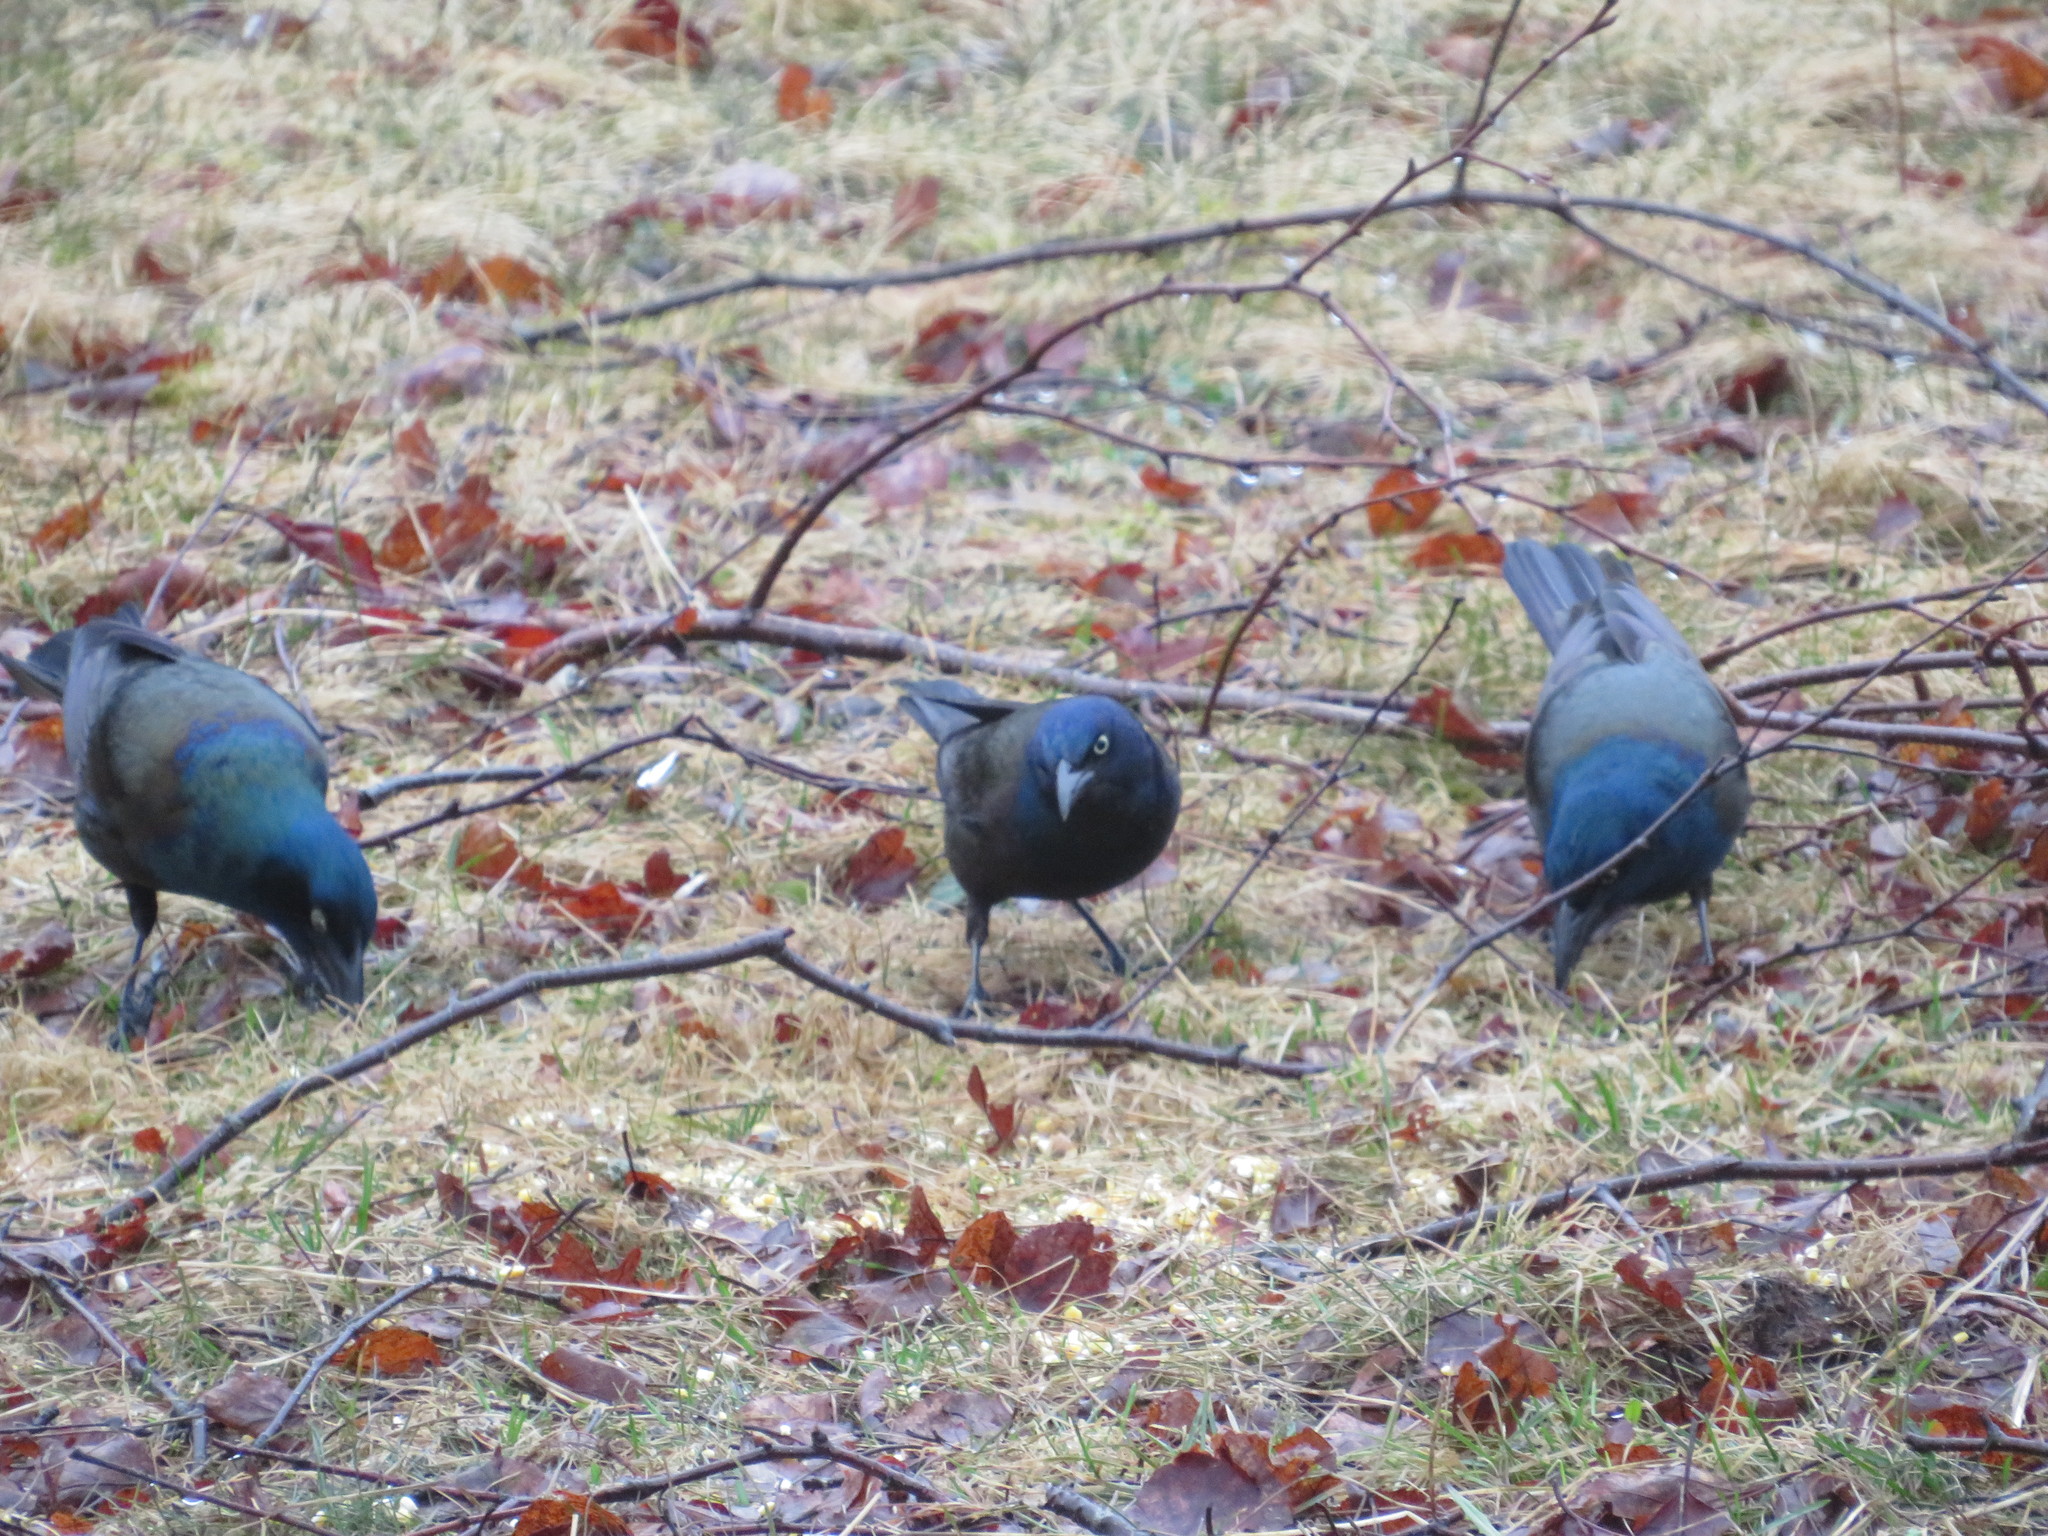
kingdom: Animalia
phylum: Chordata
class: Aves
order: Passeriformes
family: Icteridae
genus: Quiscalus
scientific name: Quiscalus quiscula
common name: Common grackle
